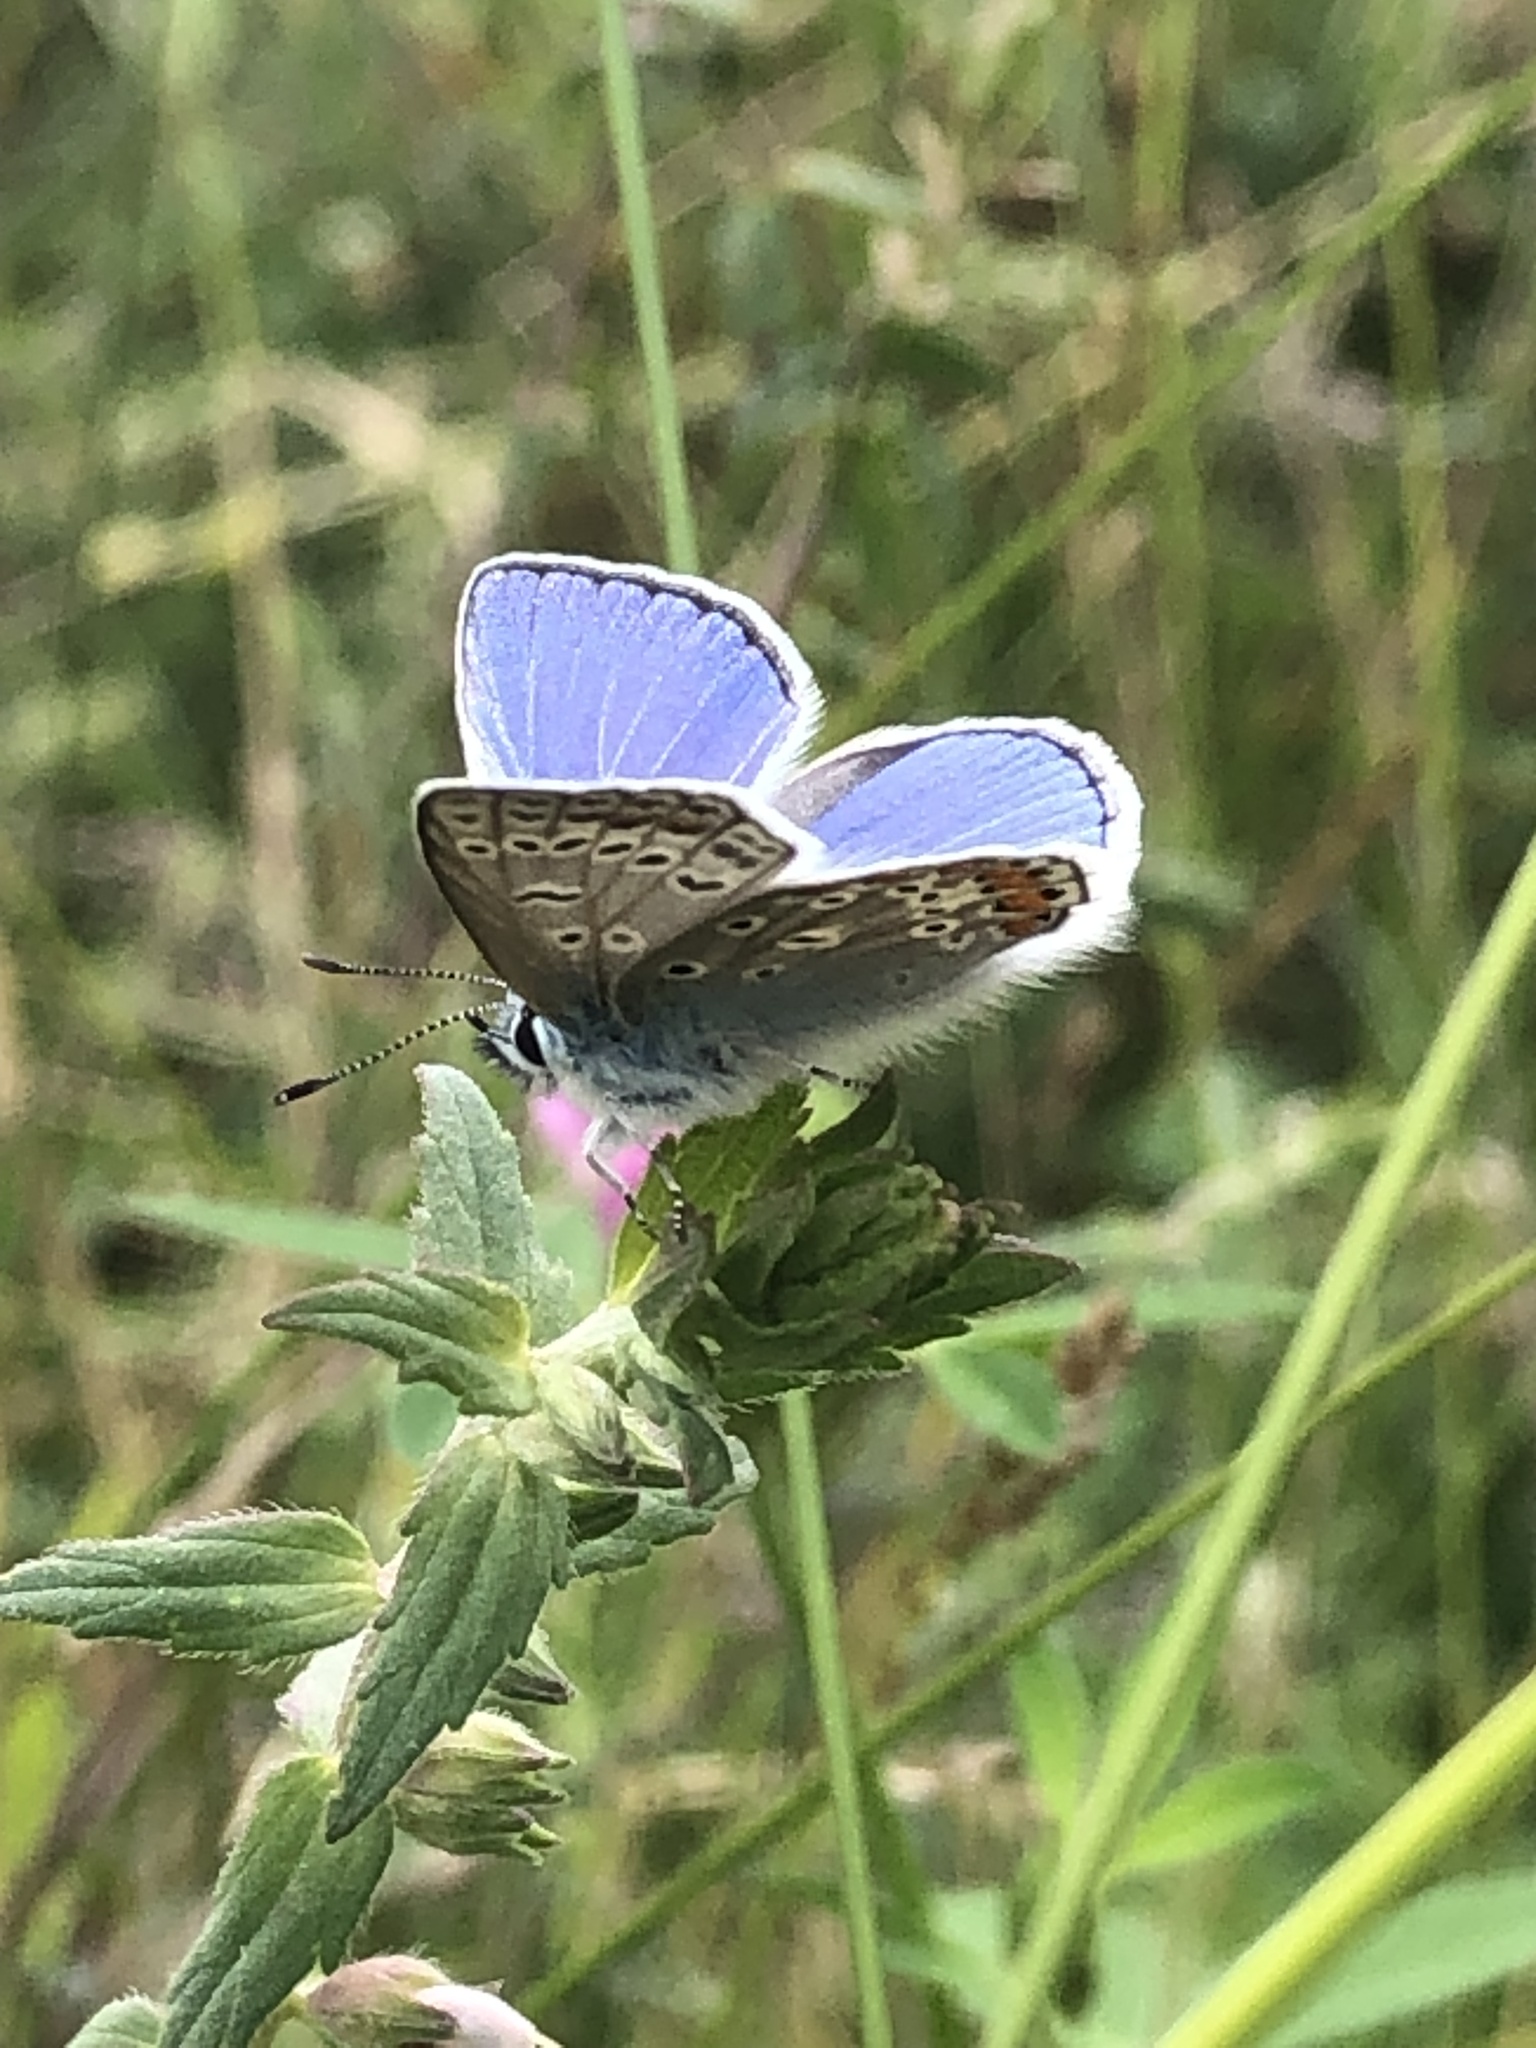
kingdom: Animalia
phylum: Arthropoda
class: Insecta
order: Lepidoptera
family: Lycaenidae
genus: Polyommatus
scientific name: Polyommatus icarus
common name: Common blue
